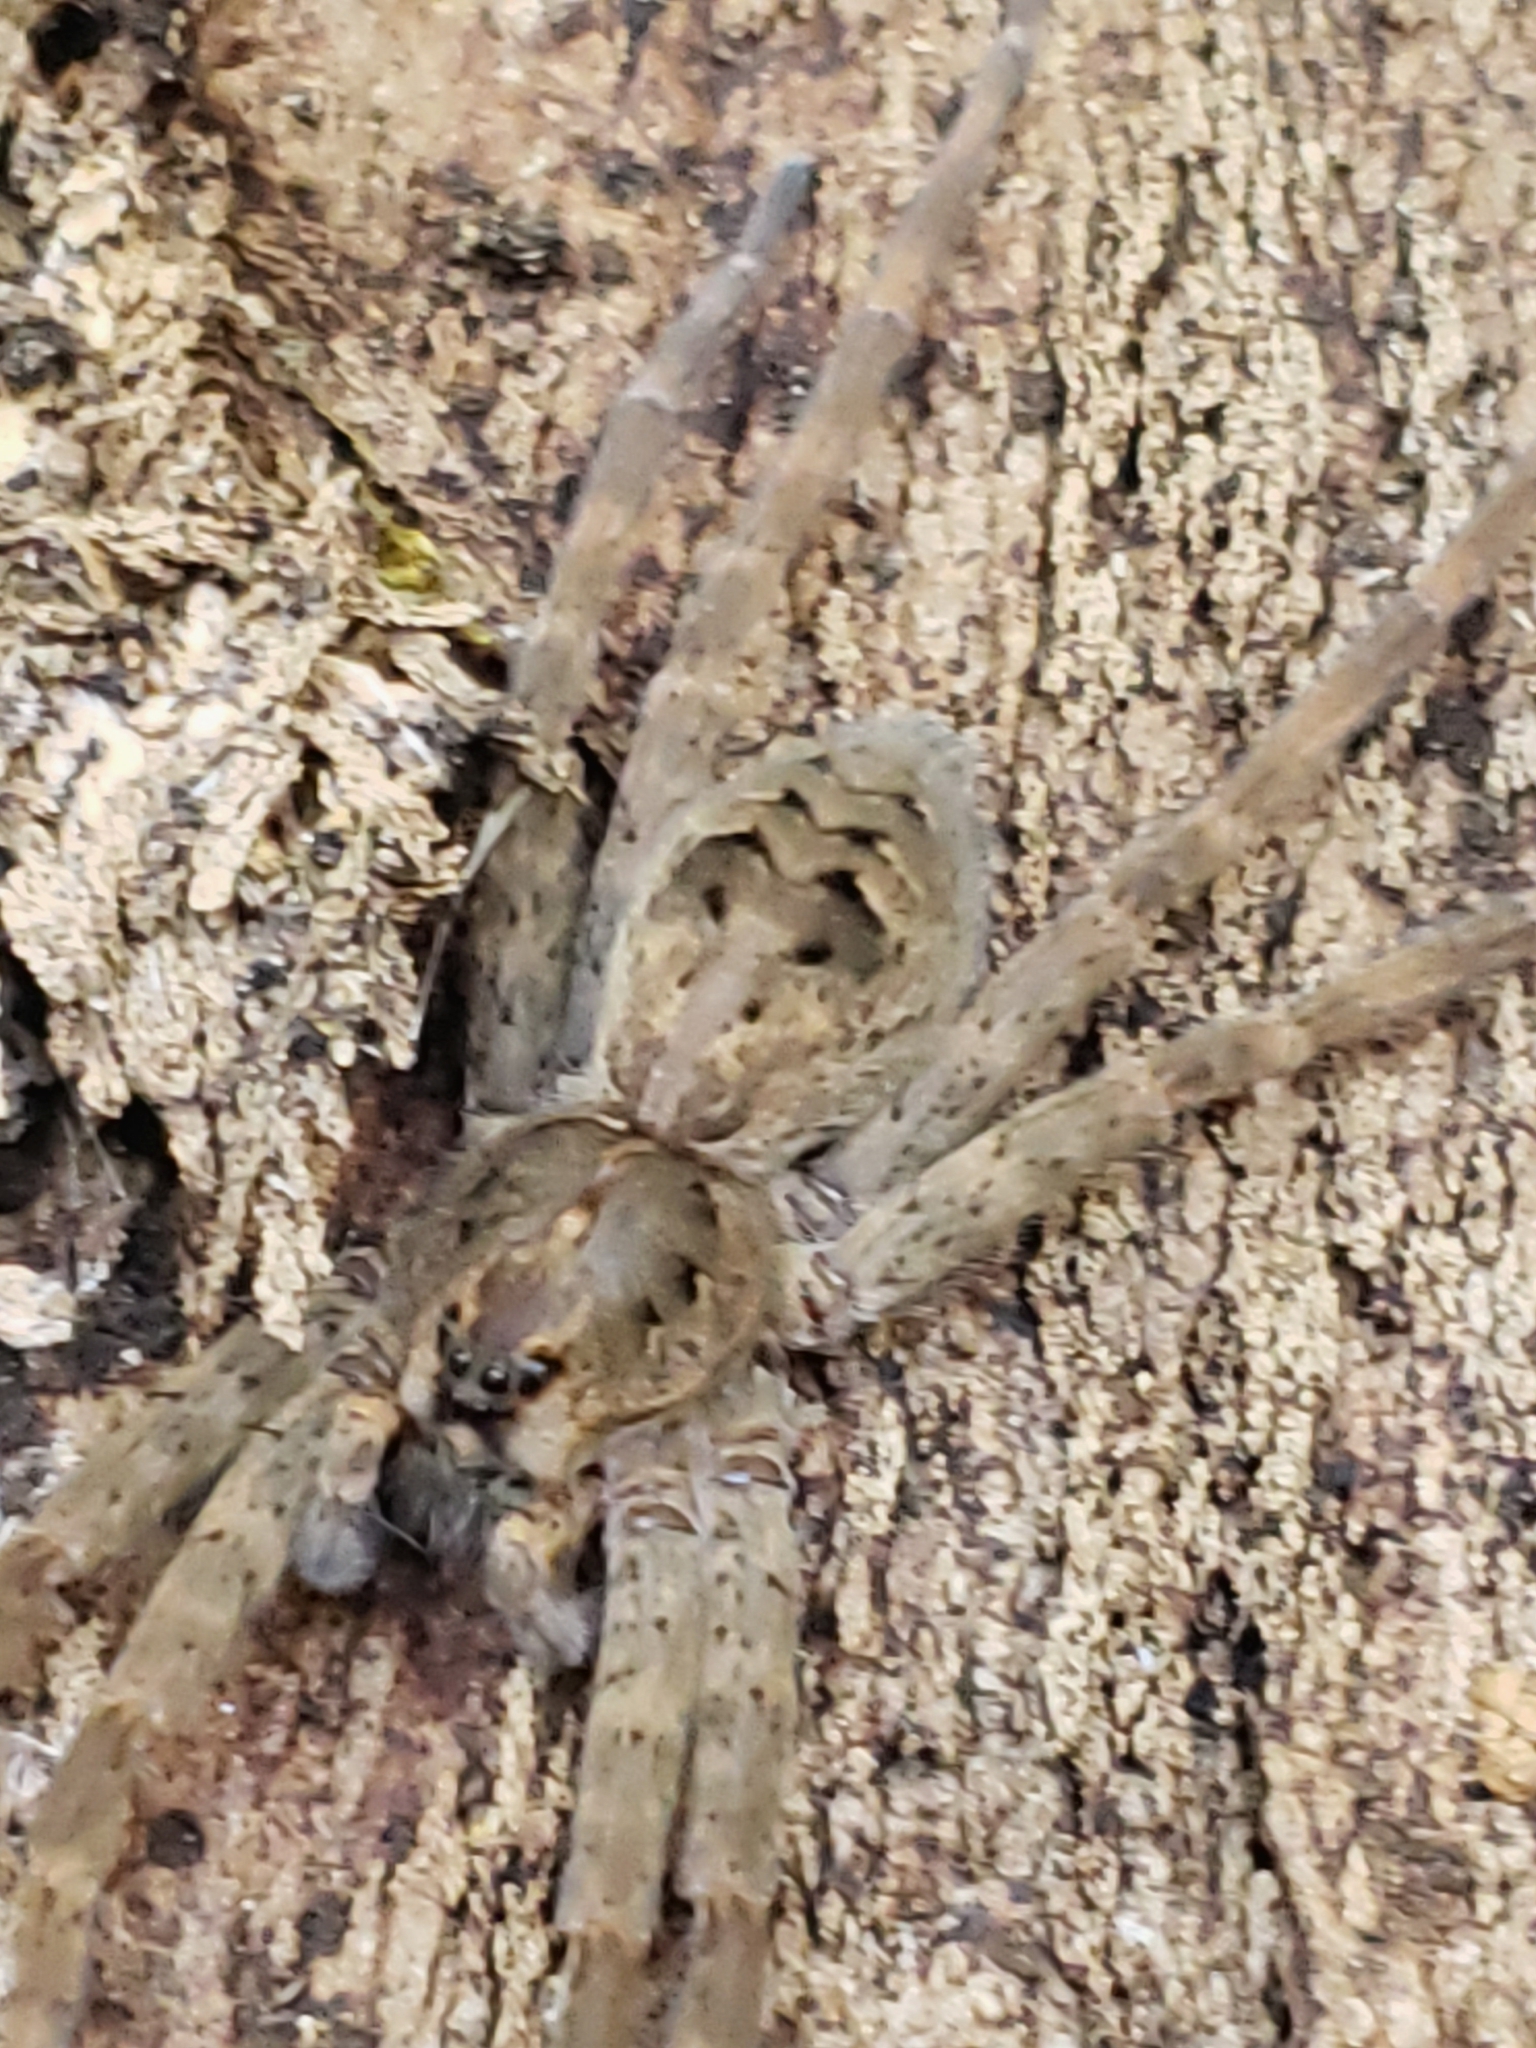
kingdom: Animalia
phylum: Arthropoda
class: Arachnida
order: Araneae
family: Pisauridae
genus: Dolomedes
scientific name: Dolomedes tenebrosus
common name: Dark fishing spider
